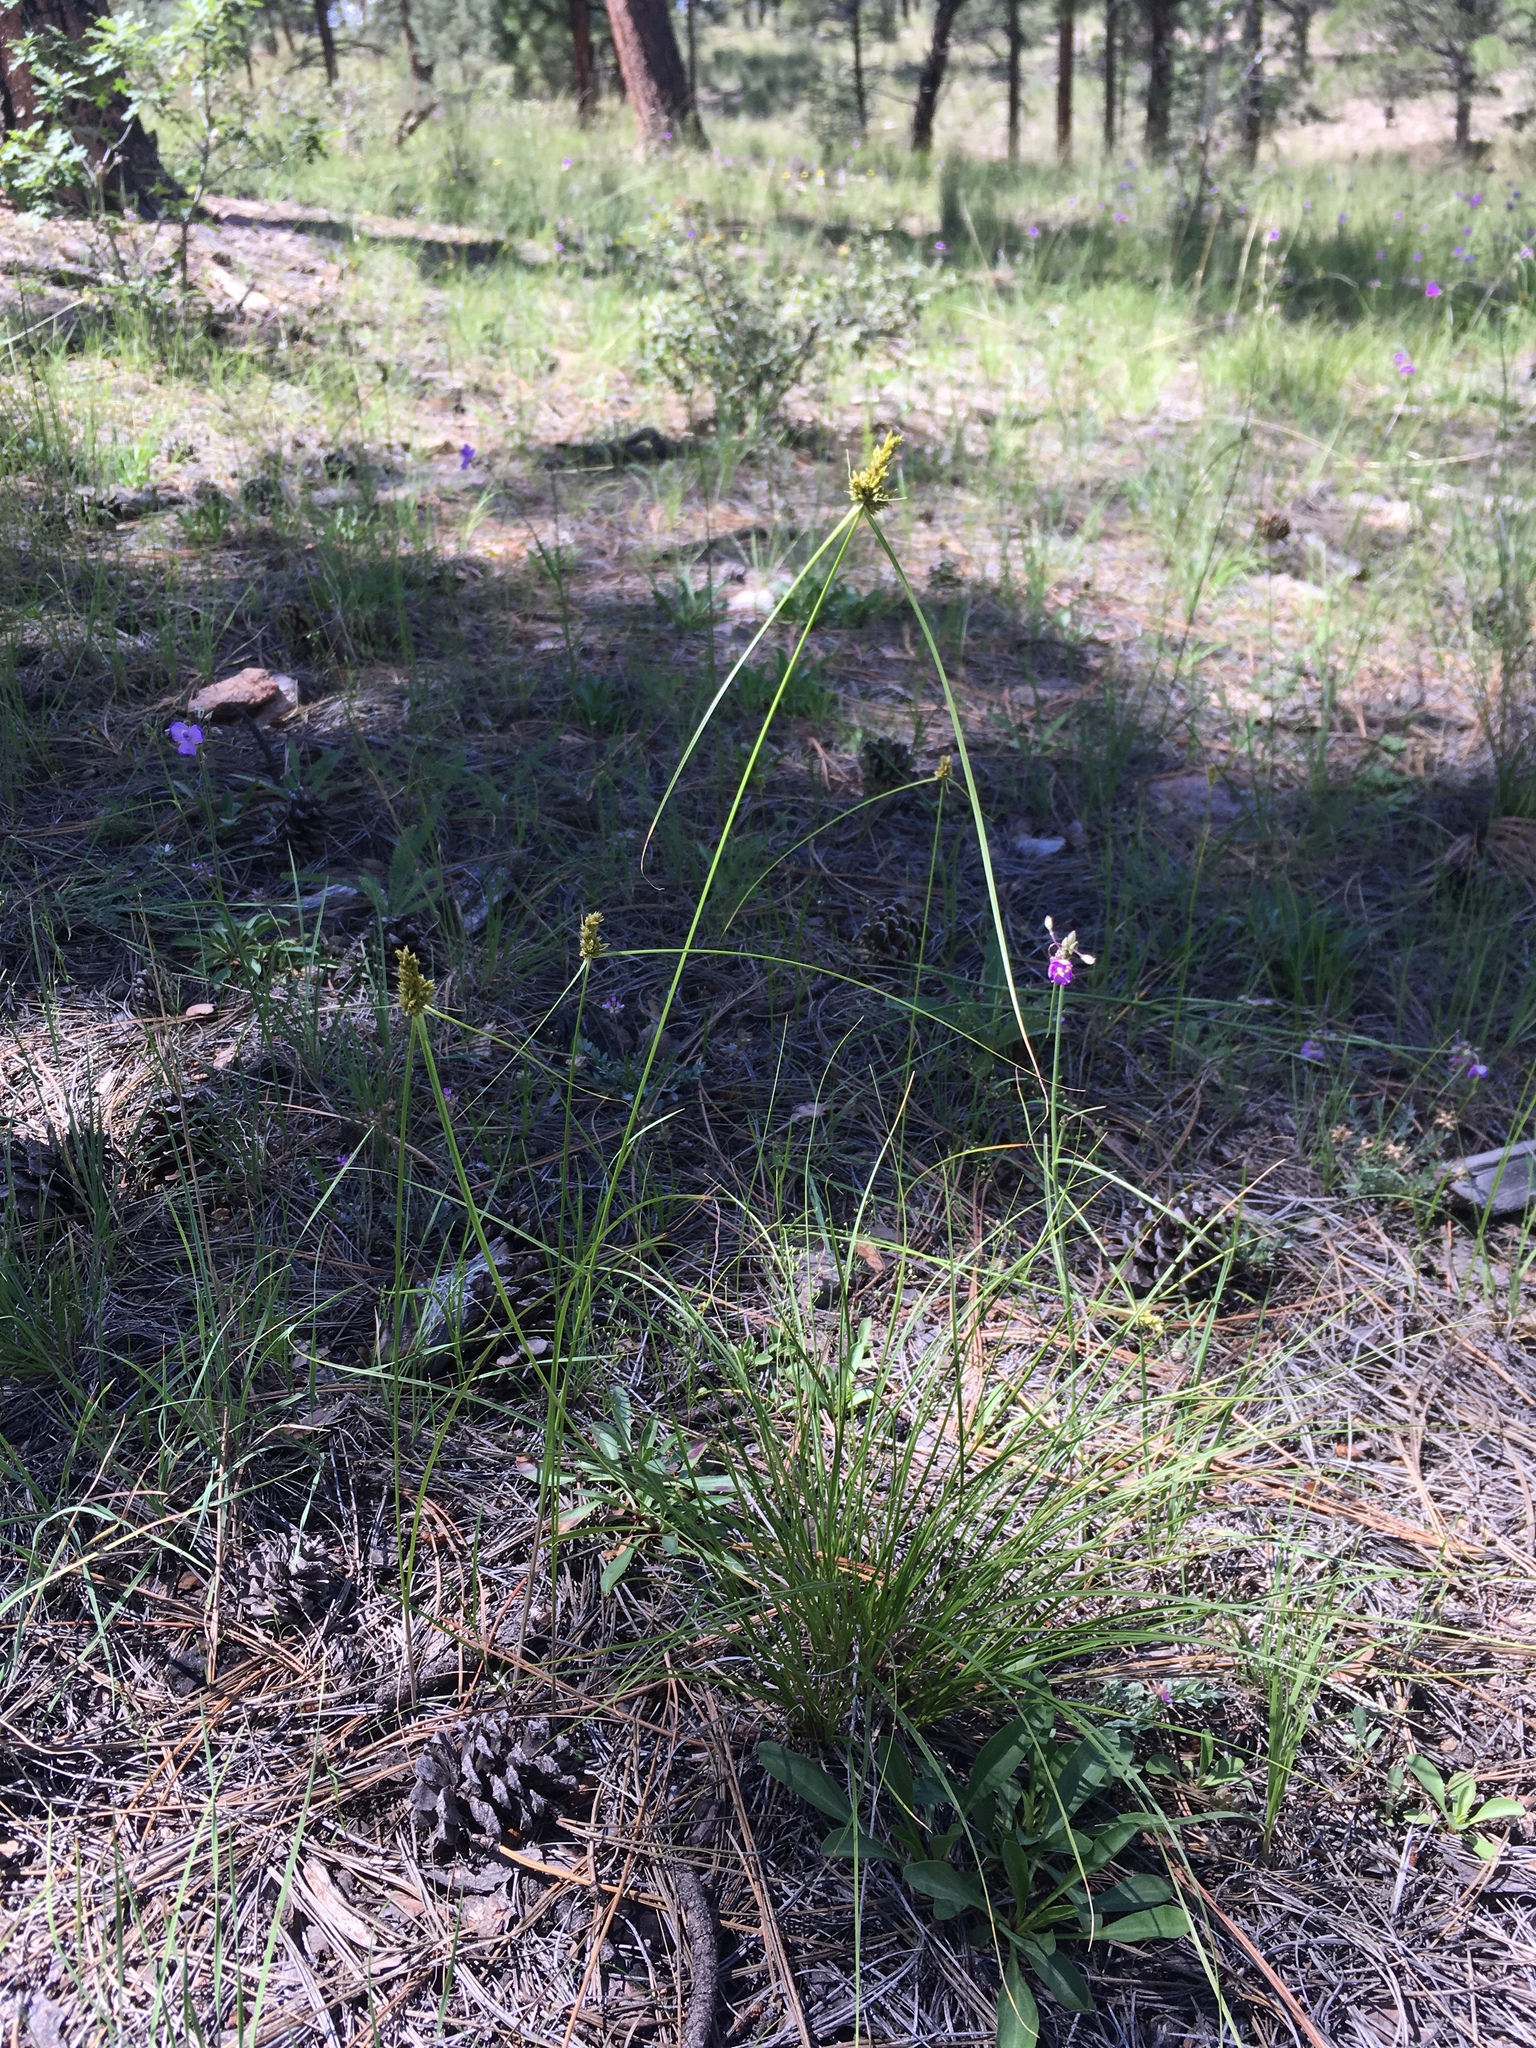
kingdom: Plantae
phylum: Tracheophyta
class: Liliopsida
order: Poales
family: Cyperaceae
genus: Cyperus
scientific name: Cyperus fendlerianus
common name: Fendler flat sedge
